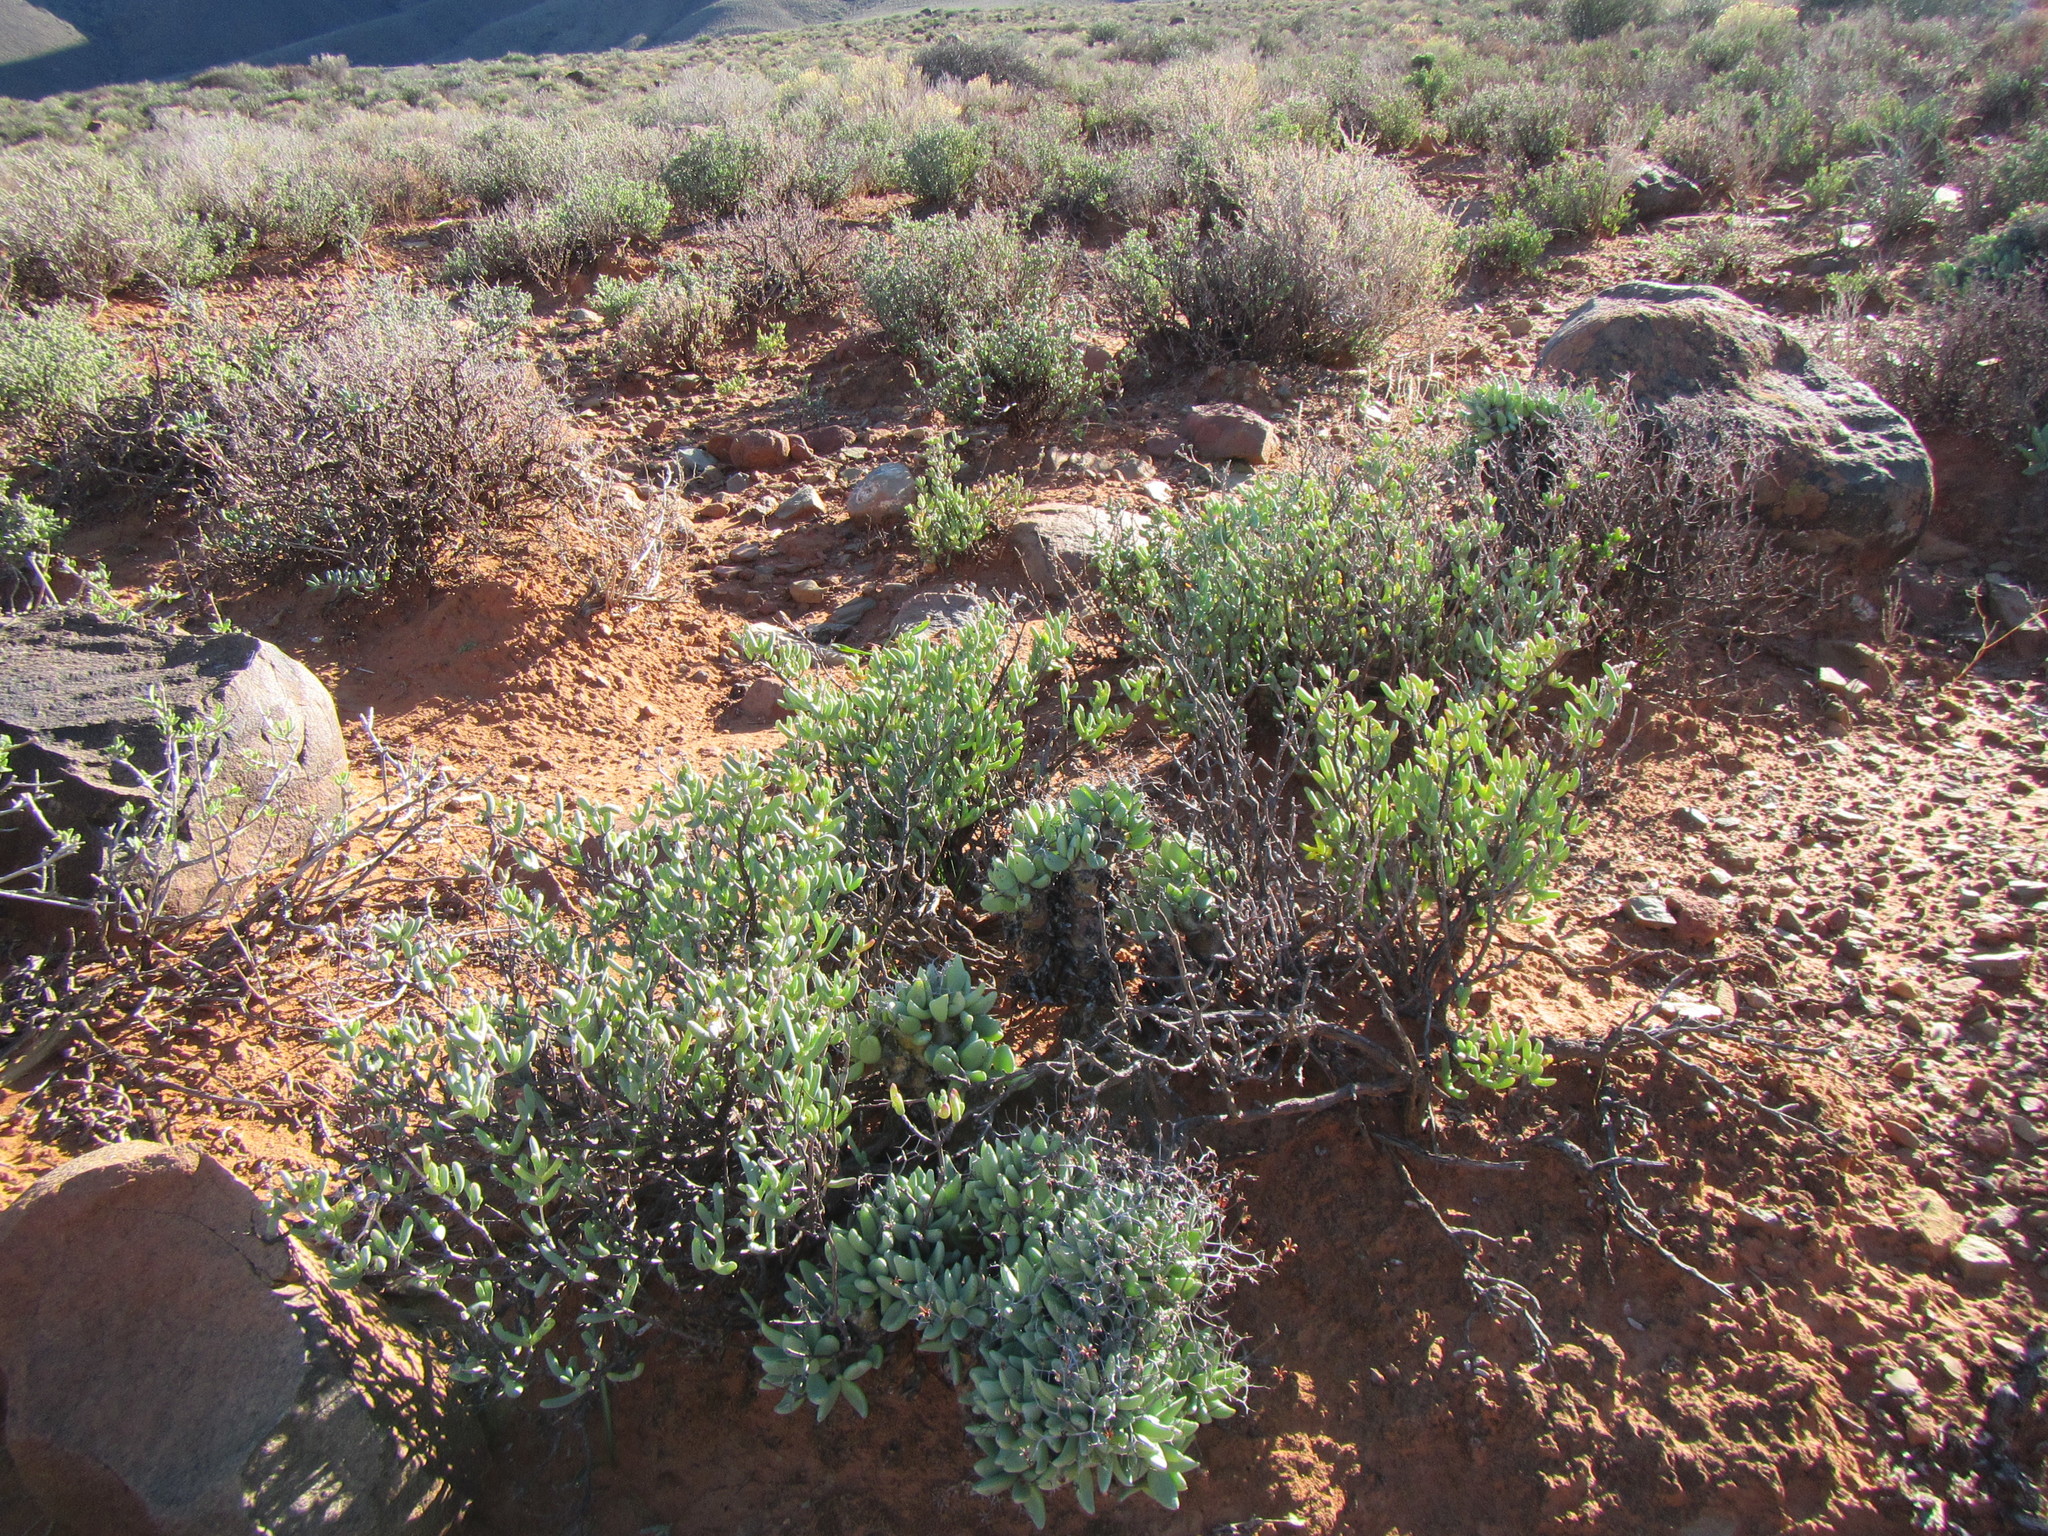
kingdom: Plantae
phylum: Tracheophyta
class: Magnoliopsida
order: Saxifragales
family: Crassulaceae
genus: Tylecodon
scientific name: Tylecodon reticulatus
